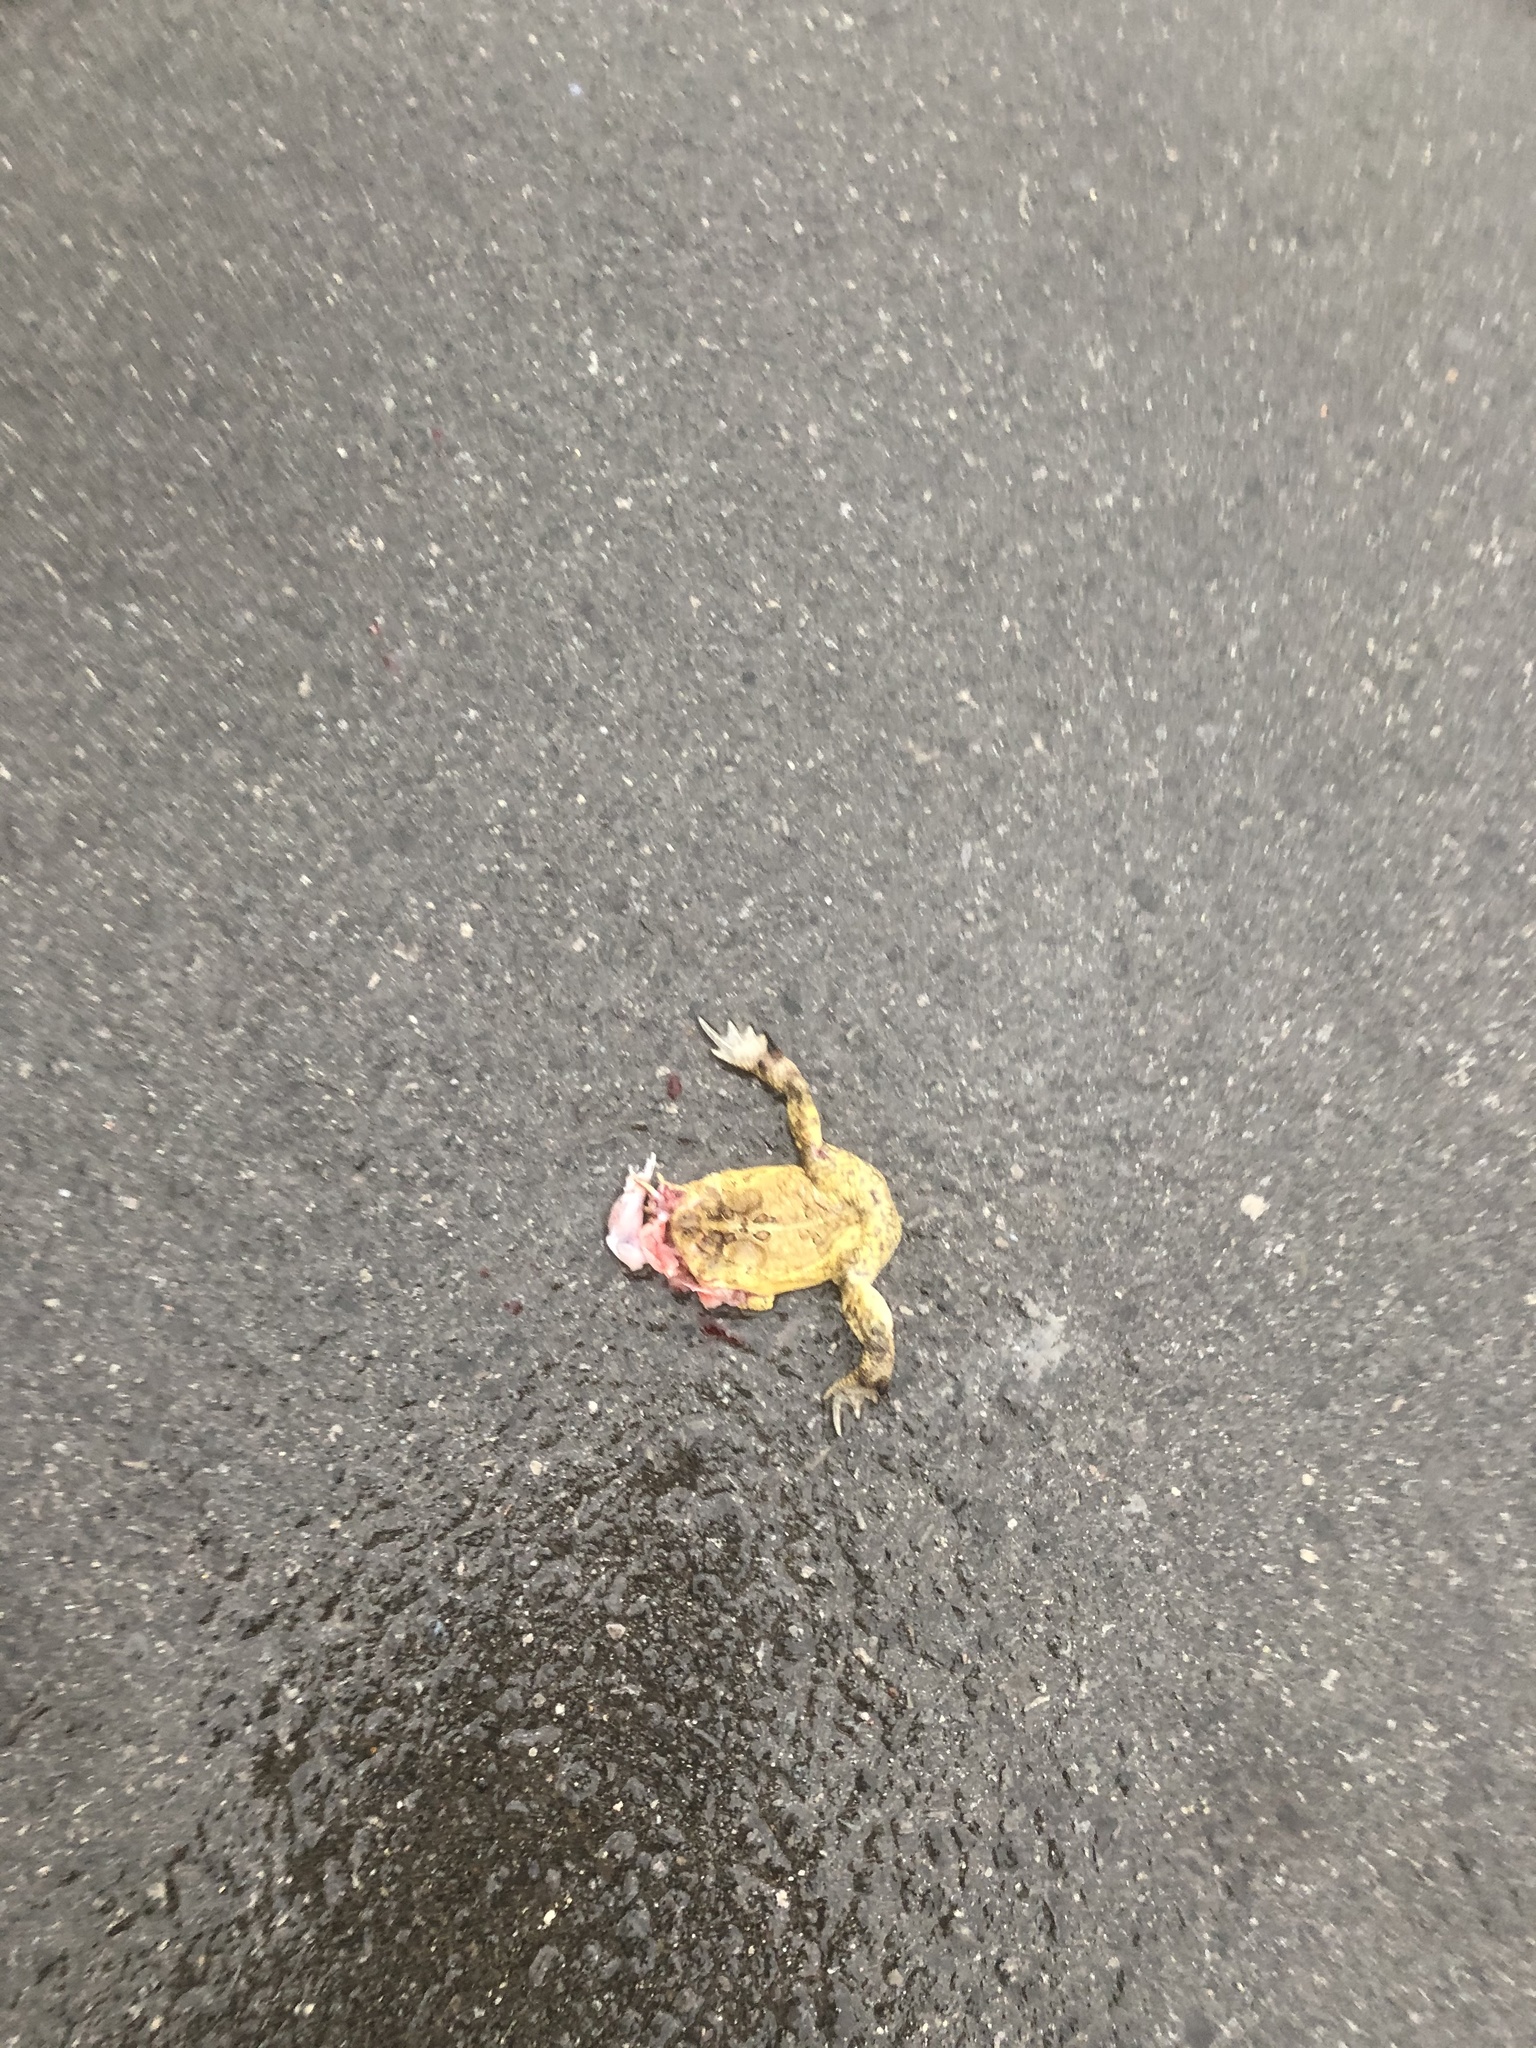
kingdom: Animalia
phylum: Chordata
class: Amphibia
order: Anura
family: Bufonidae
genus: Anaxyrus
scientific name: Anaxyrus americanus
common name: American toad
